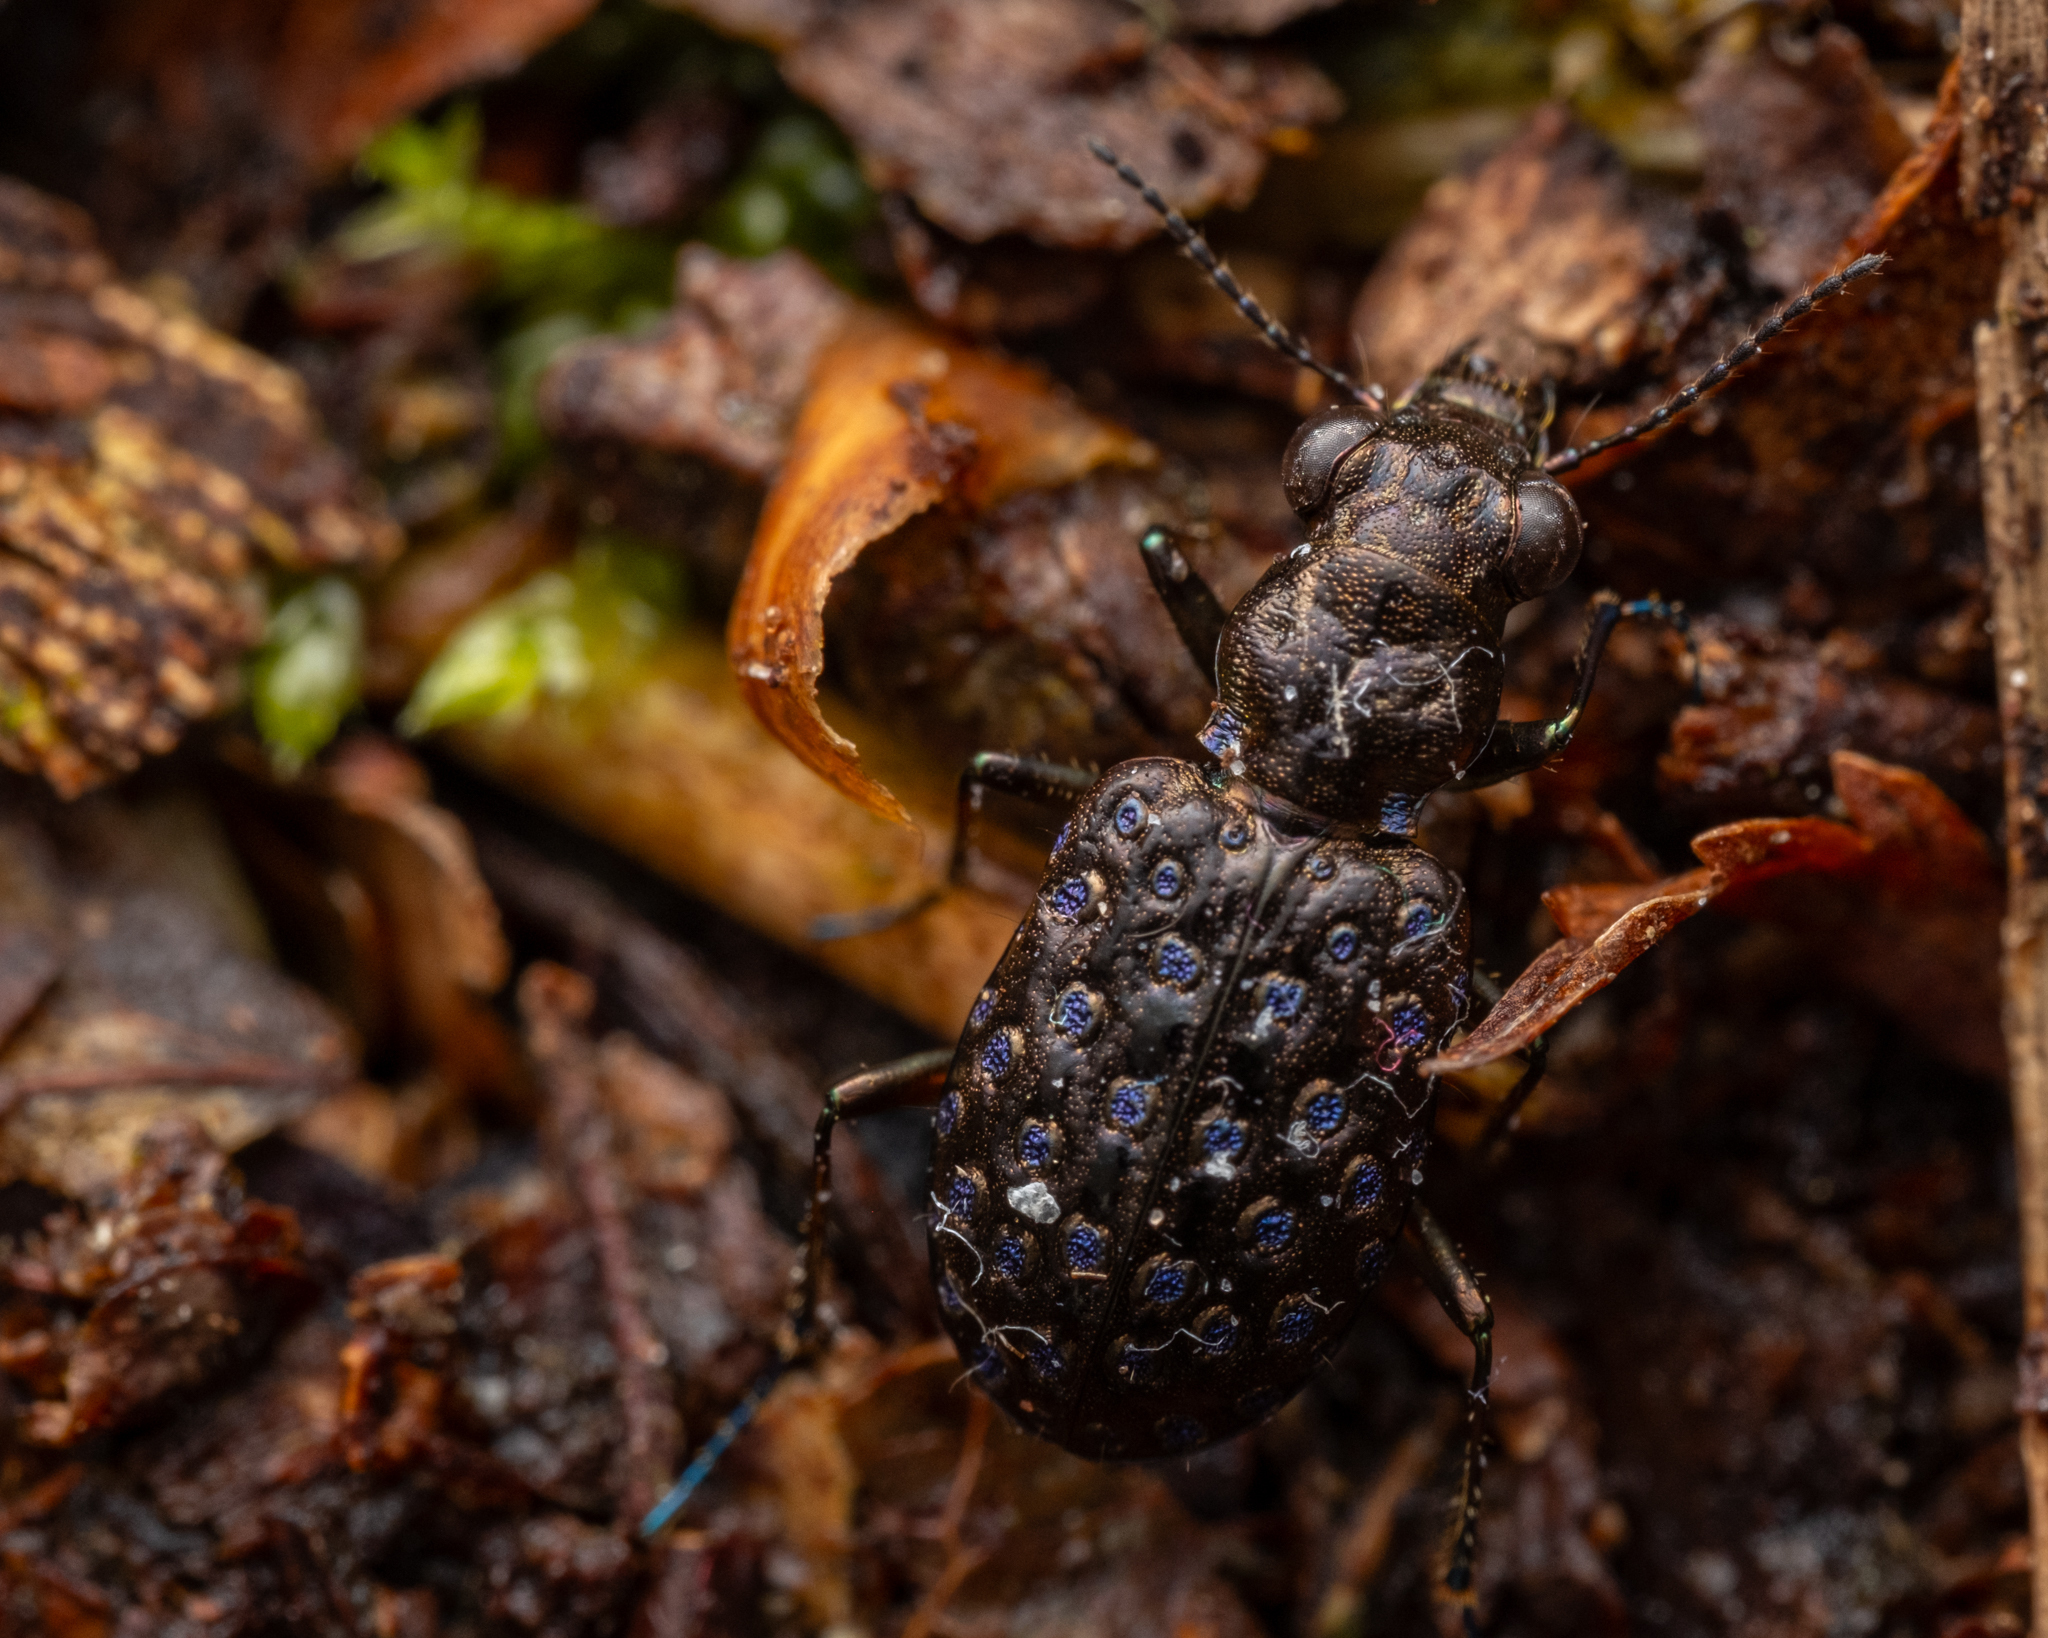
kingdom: Animalia
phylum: Arthropoda
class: Insecta
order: Coleoptera
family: Carabidae
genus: Elaphrus
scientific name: Elaphrus cupreus
